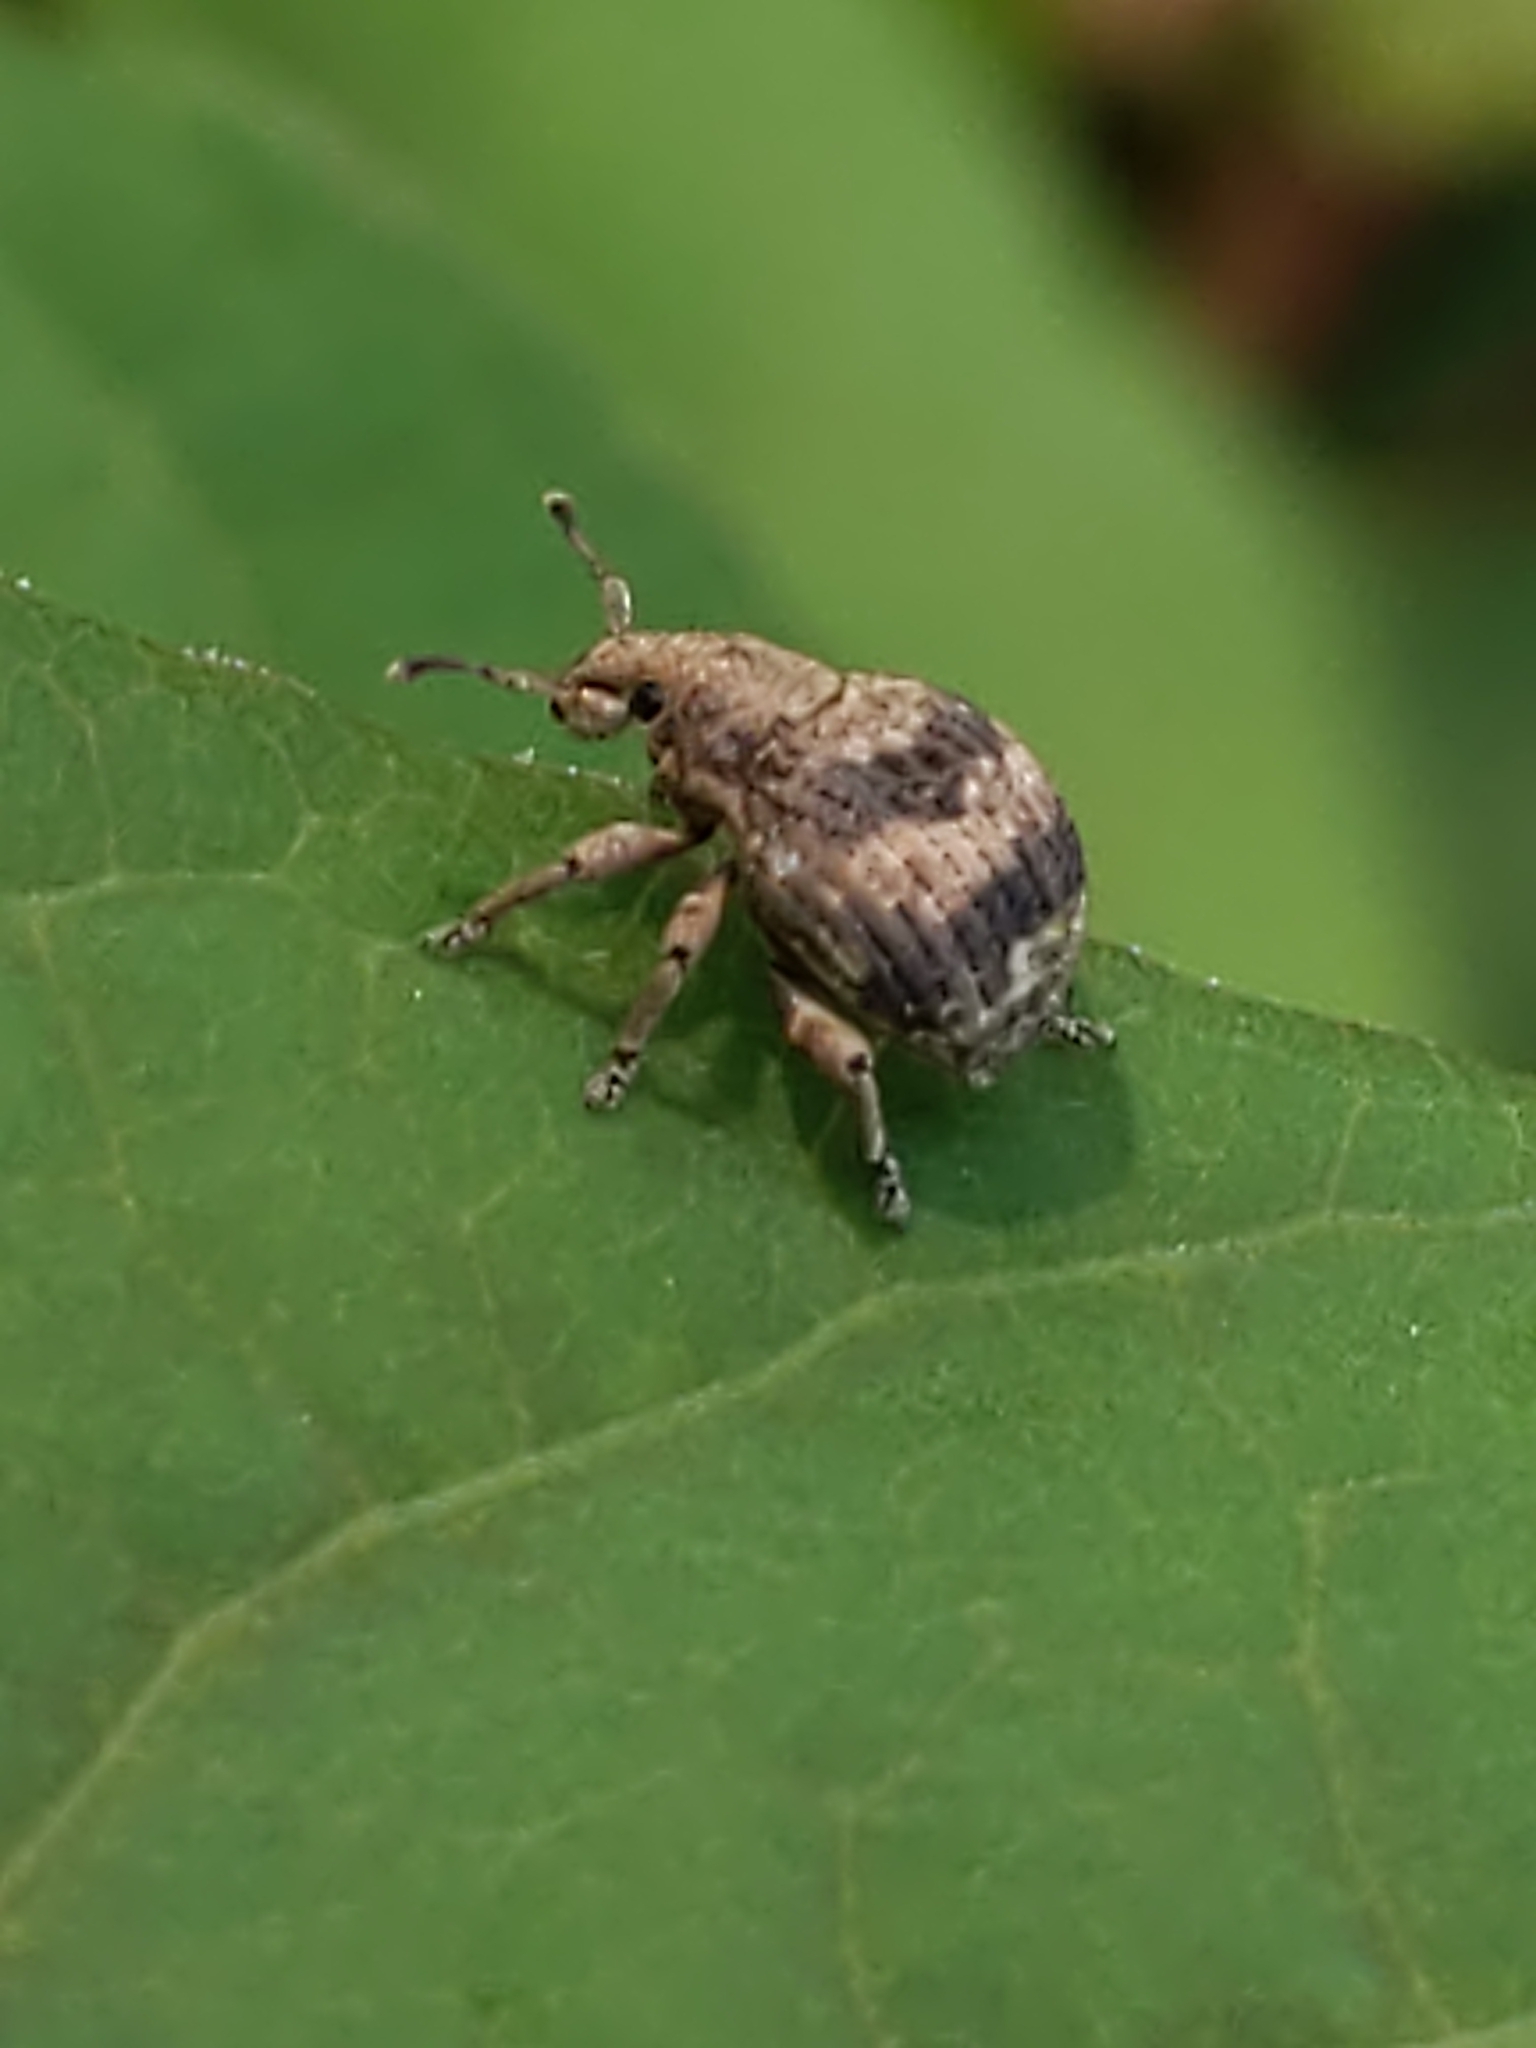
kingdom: Animalia
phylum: Arthropoda
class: Insecta
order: Coleoptera
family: Curculionidae
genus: Pseudocneorhinus
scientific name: Pseudocneorhinus bifasciatus
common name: Two-banded japanese weevil
